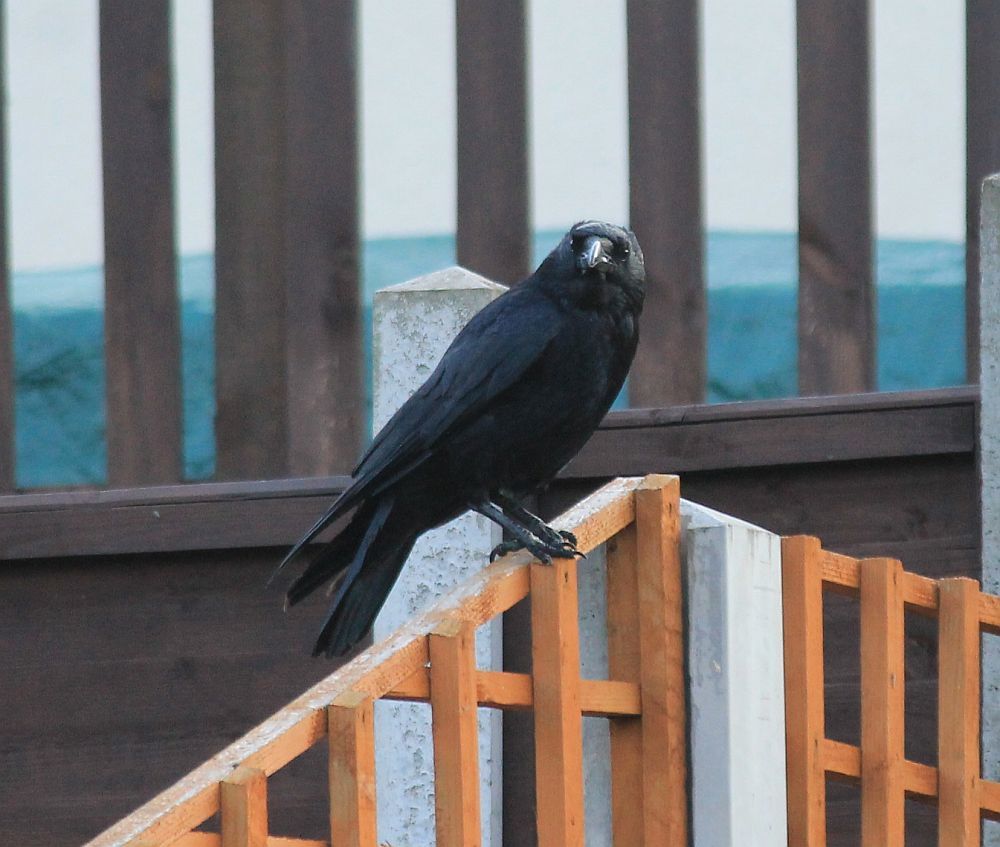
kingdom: Animalia
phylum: Chordata
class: Aves
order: Passeriformes
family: Corvidae
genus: Corvus
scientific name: Corvus corone
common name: Carrion crow
